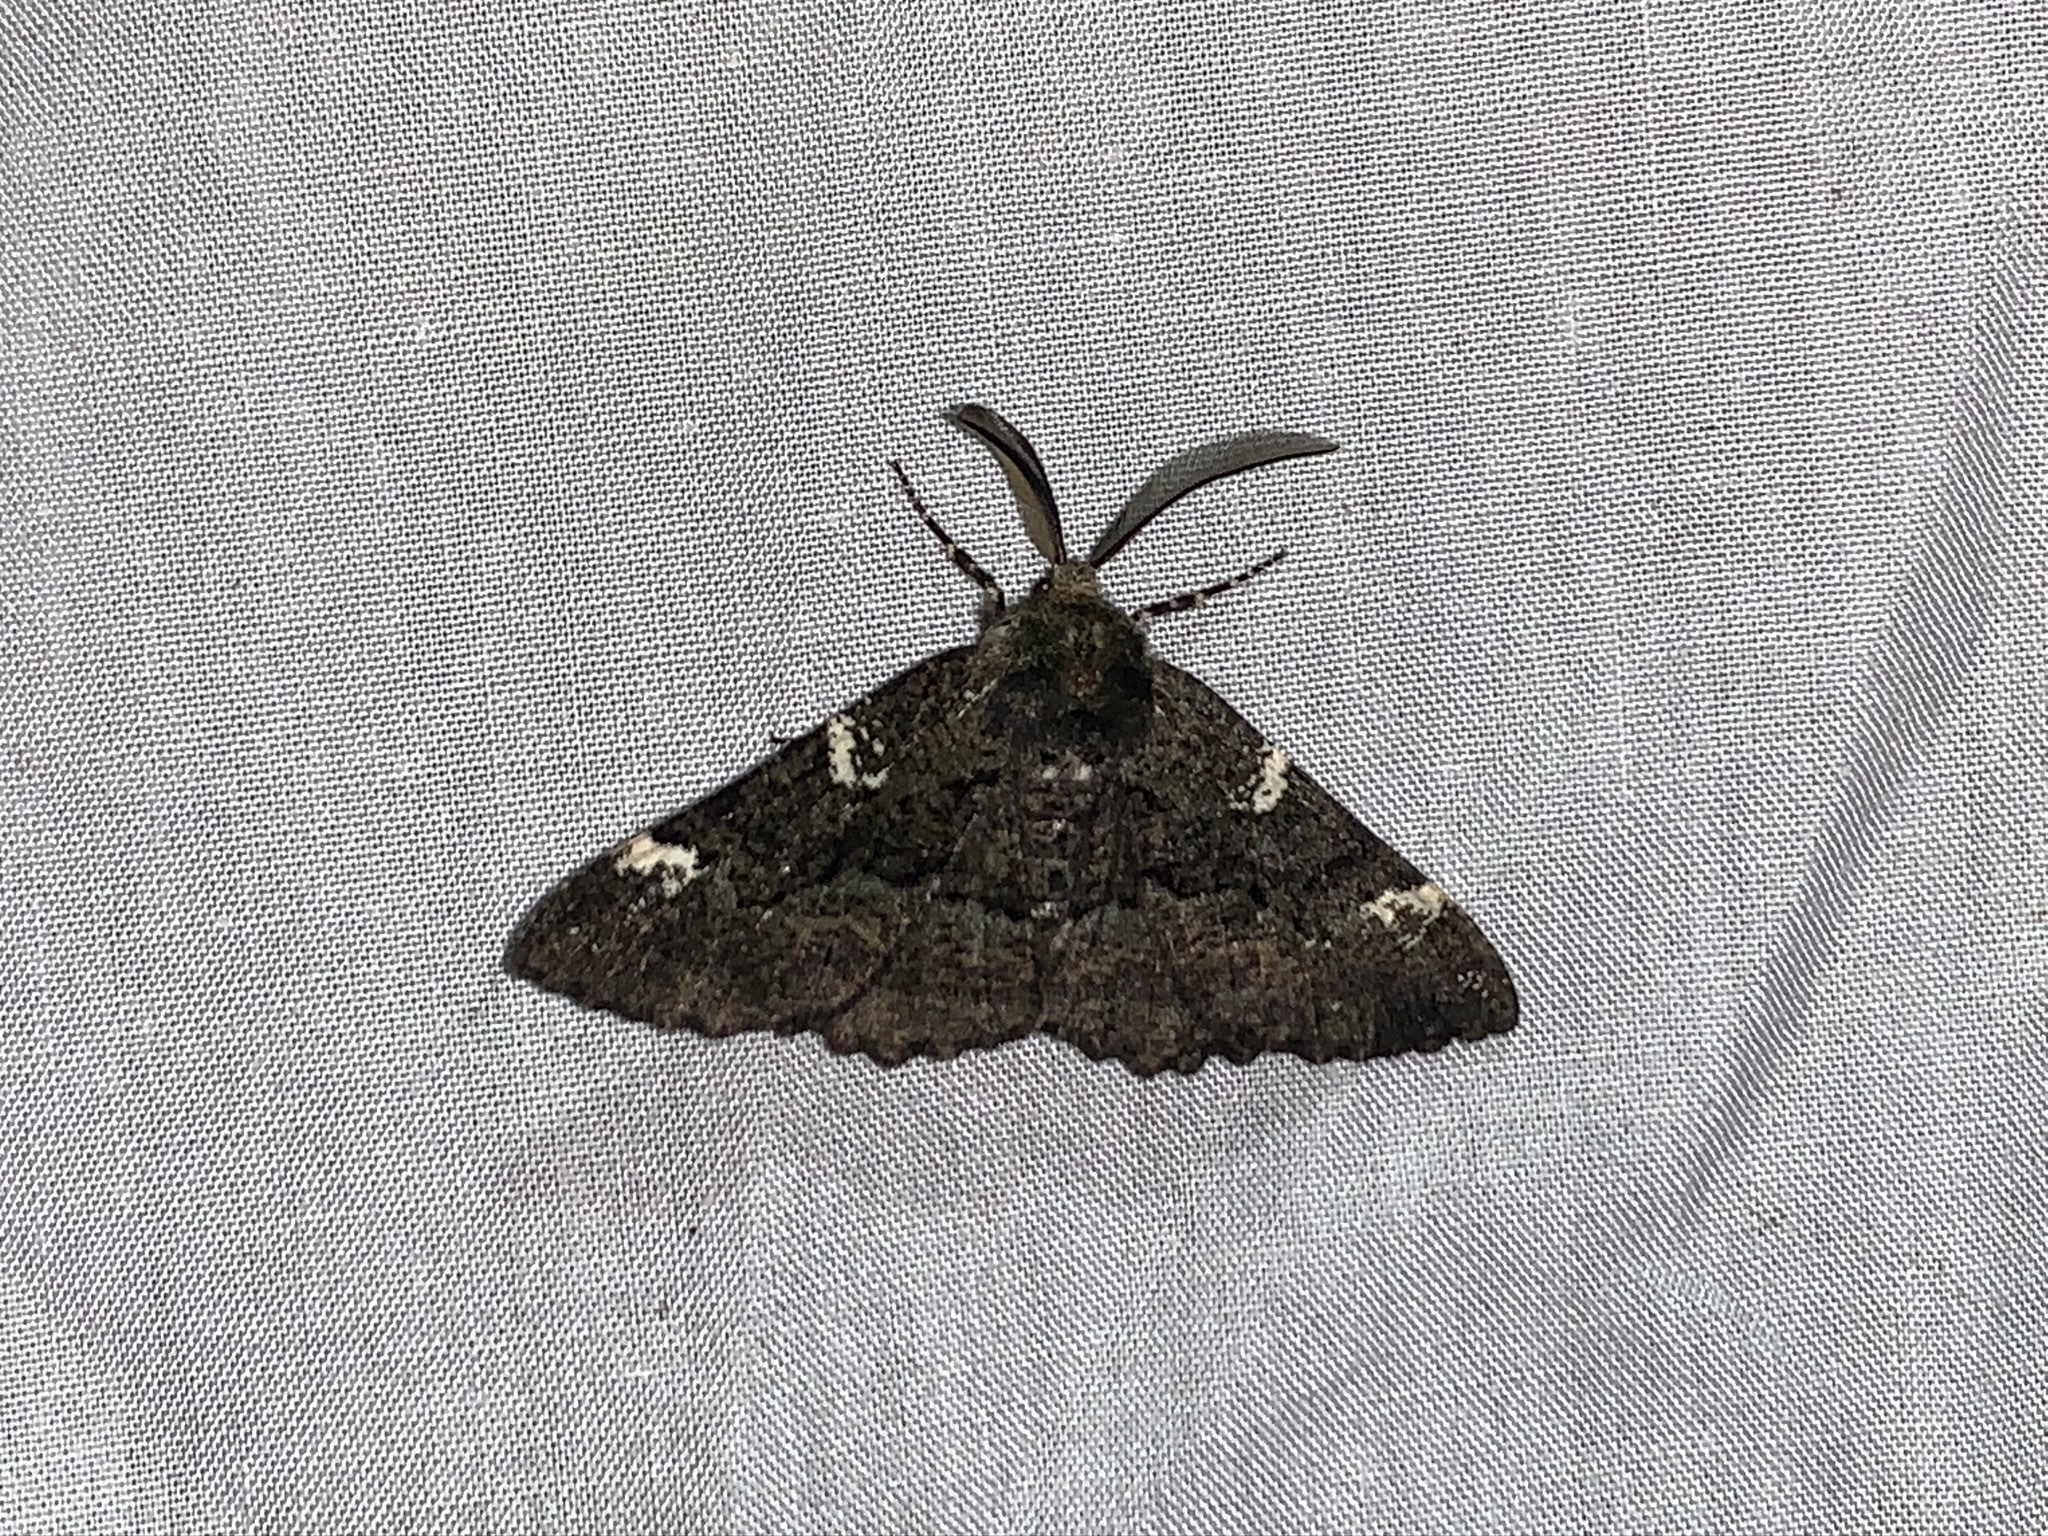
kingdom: Animalia
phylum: Arthropoda
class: Insecta
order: Lepidoptera
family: Geometridae
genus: Phaeoura
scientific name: Phaeoura quernaria
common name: Oak beauty
